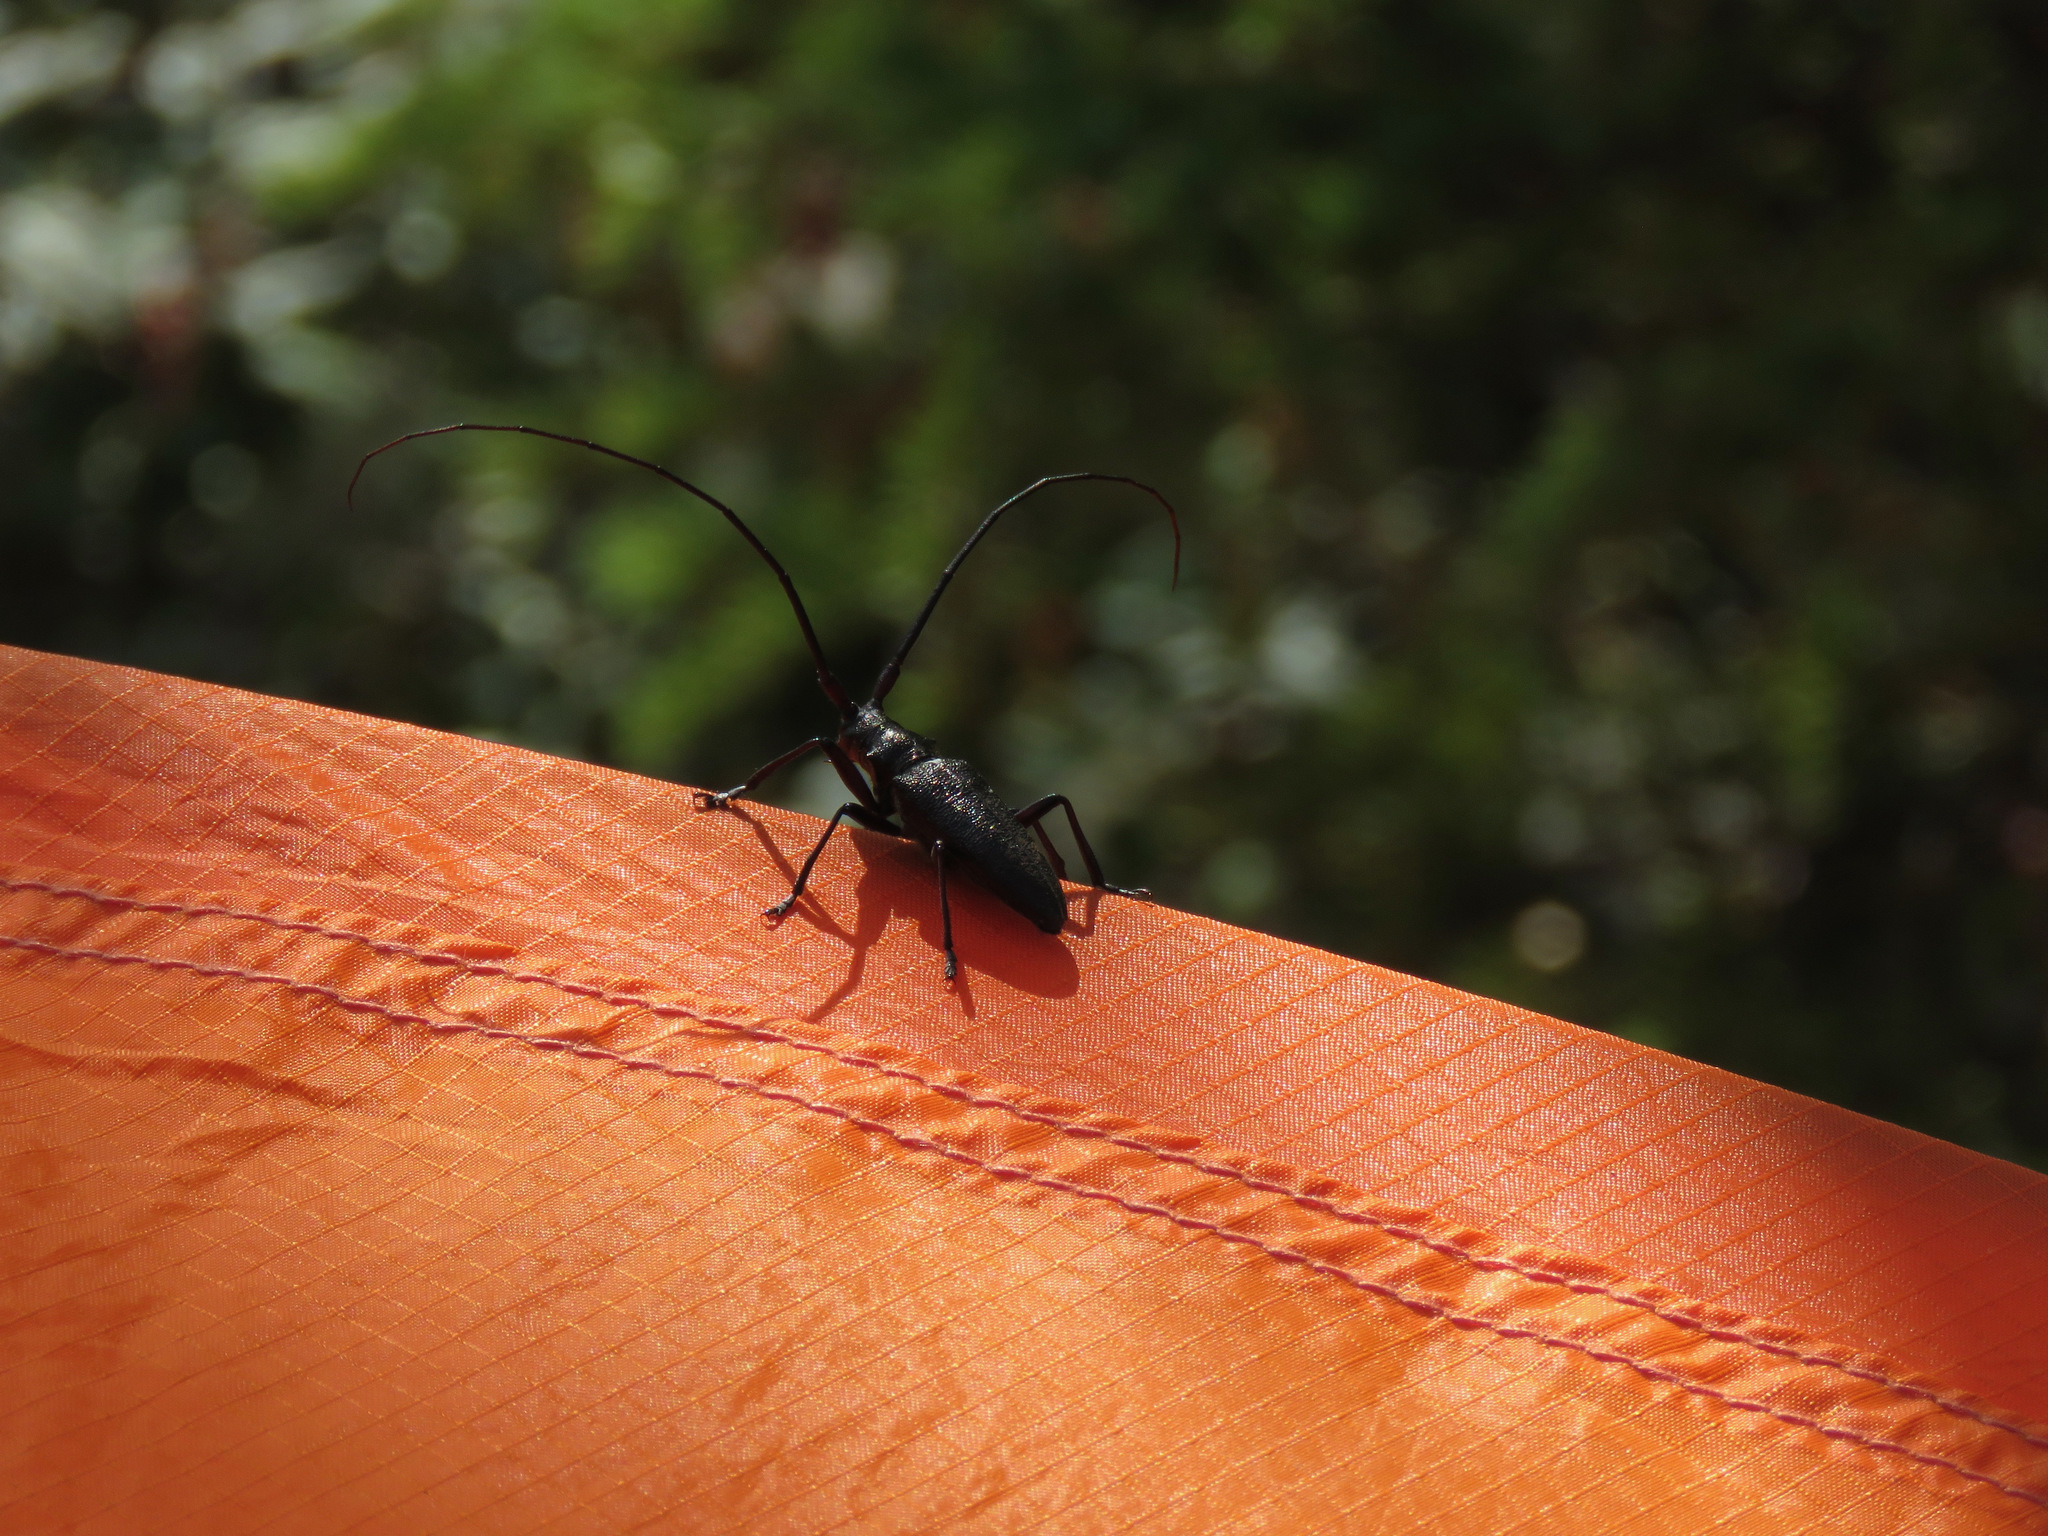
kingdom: Animalia
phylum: Arthropoda
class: Insecta
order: Coleoptera
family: Cerambycidae
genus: Monochamus
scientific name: Monochamus scutellatus
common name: White-spotted sawyer beetle
